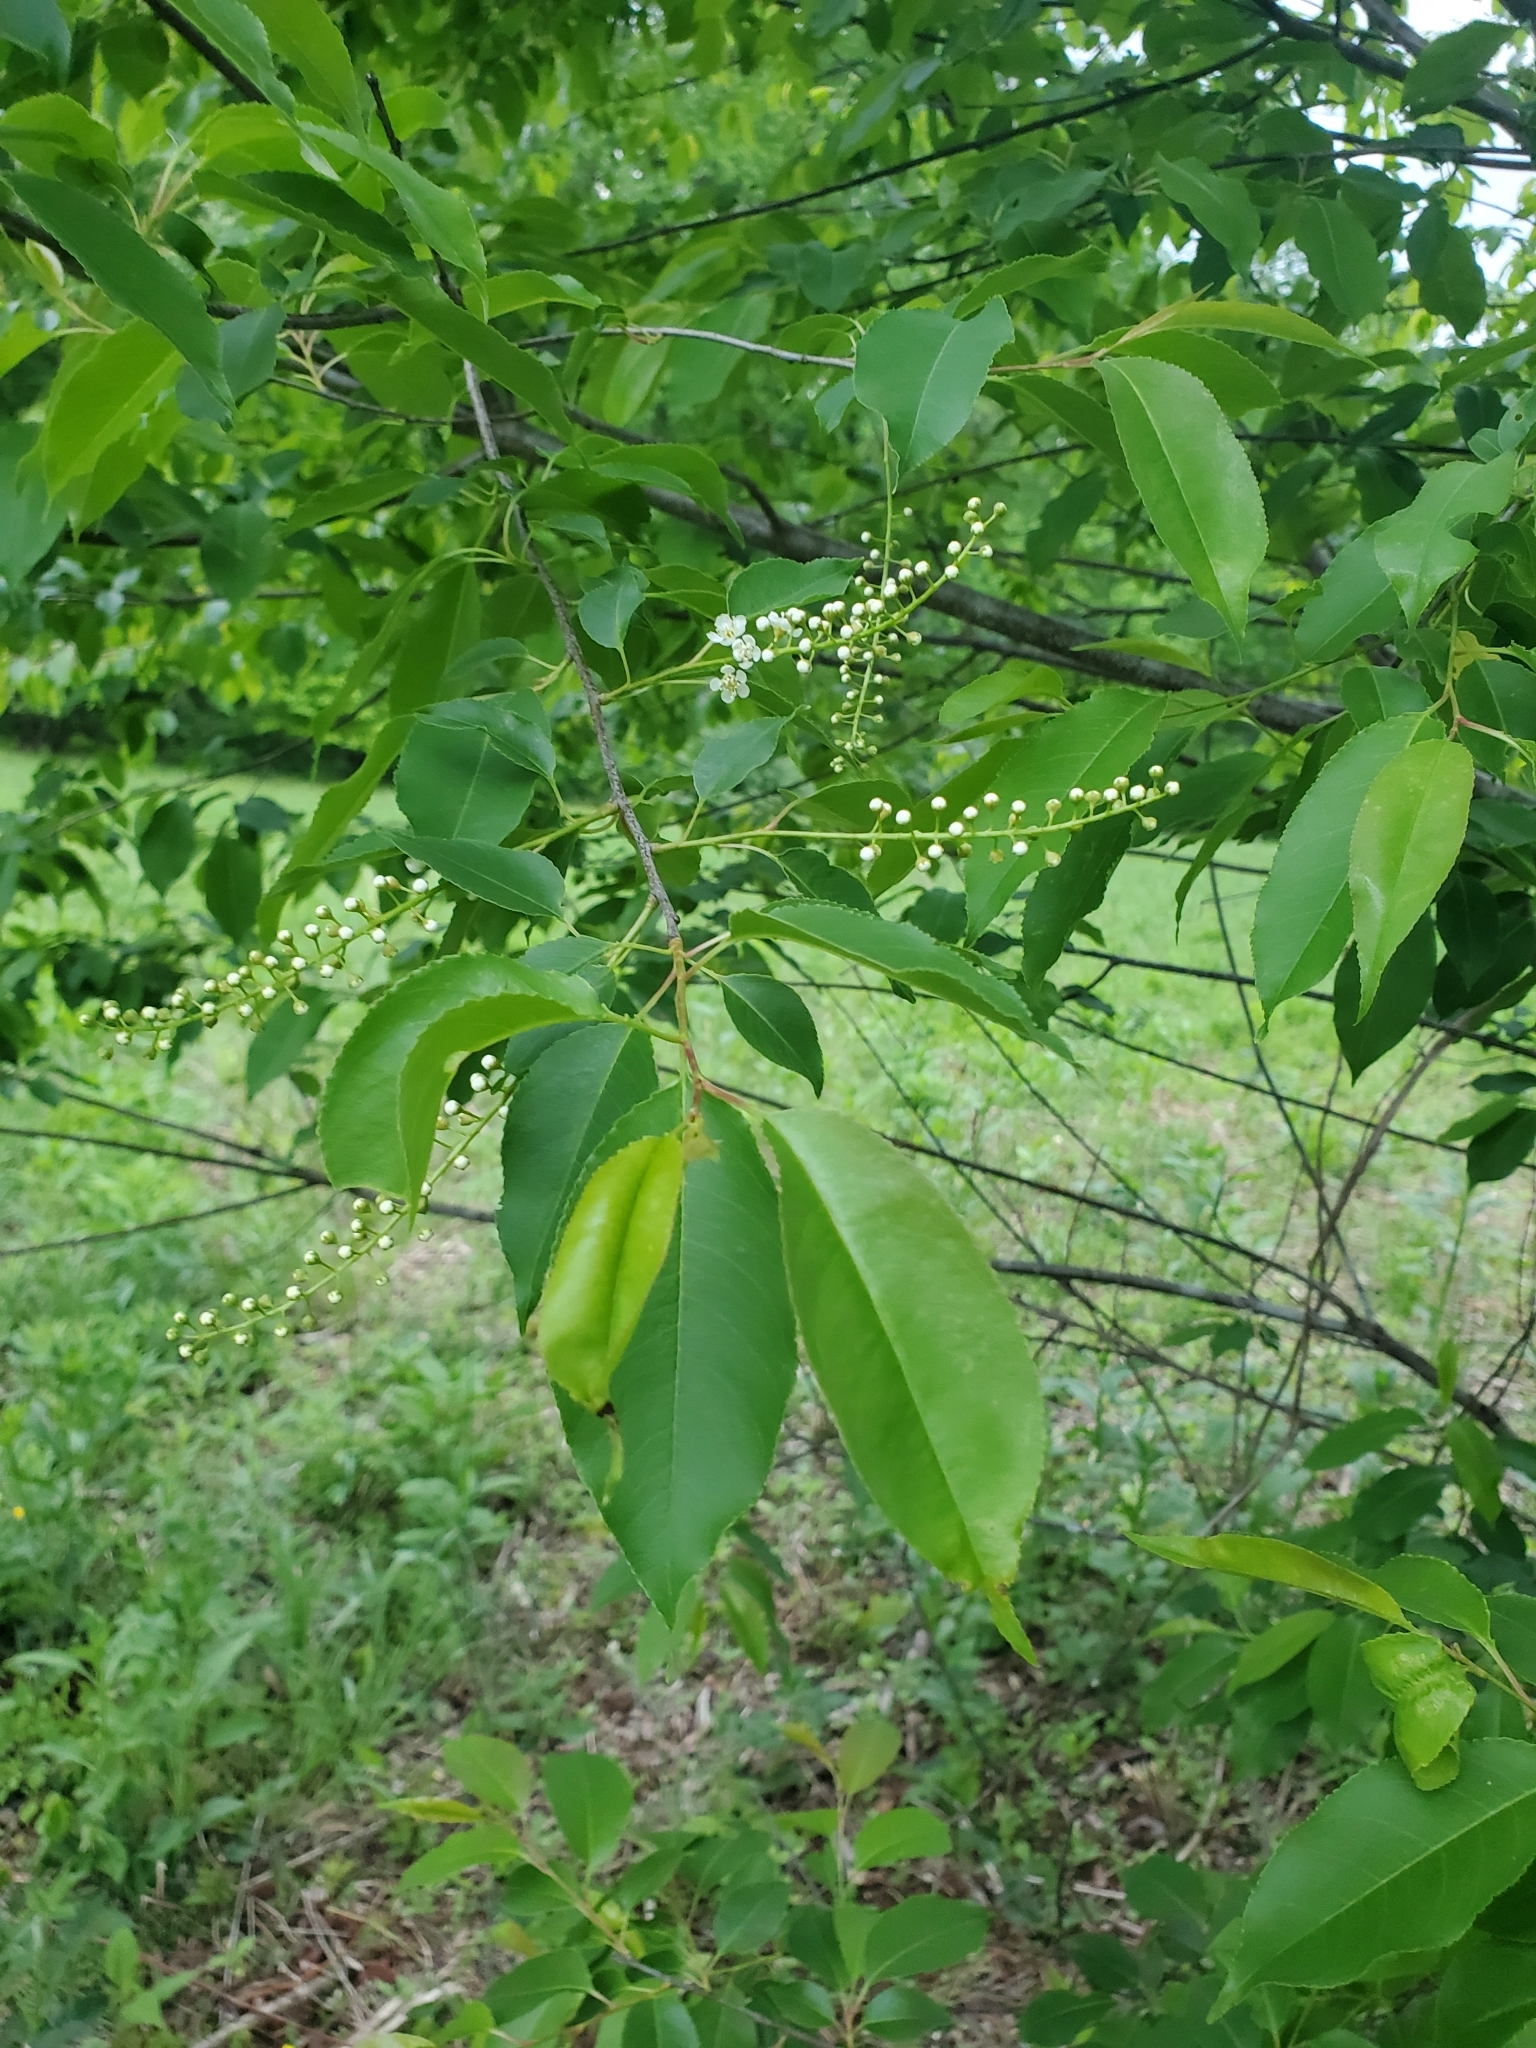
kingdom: Plantae
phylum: Tracheophyta
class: Magnoliopsida
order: Rosales
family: Rosaceae
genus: Prunus
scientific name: Prunus serotina
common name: Black cherry
